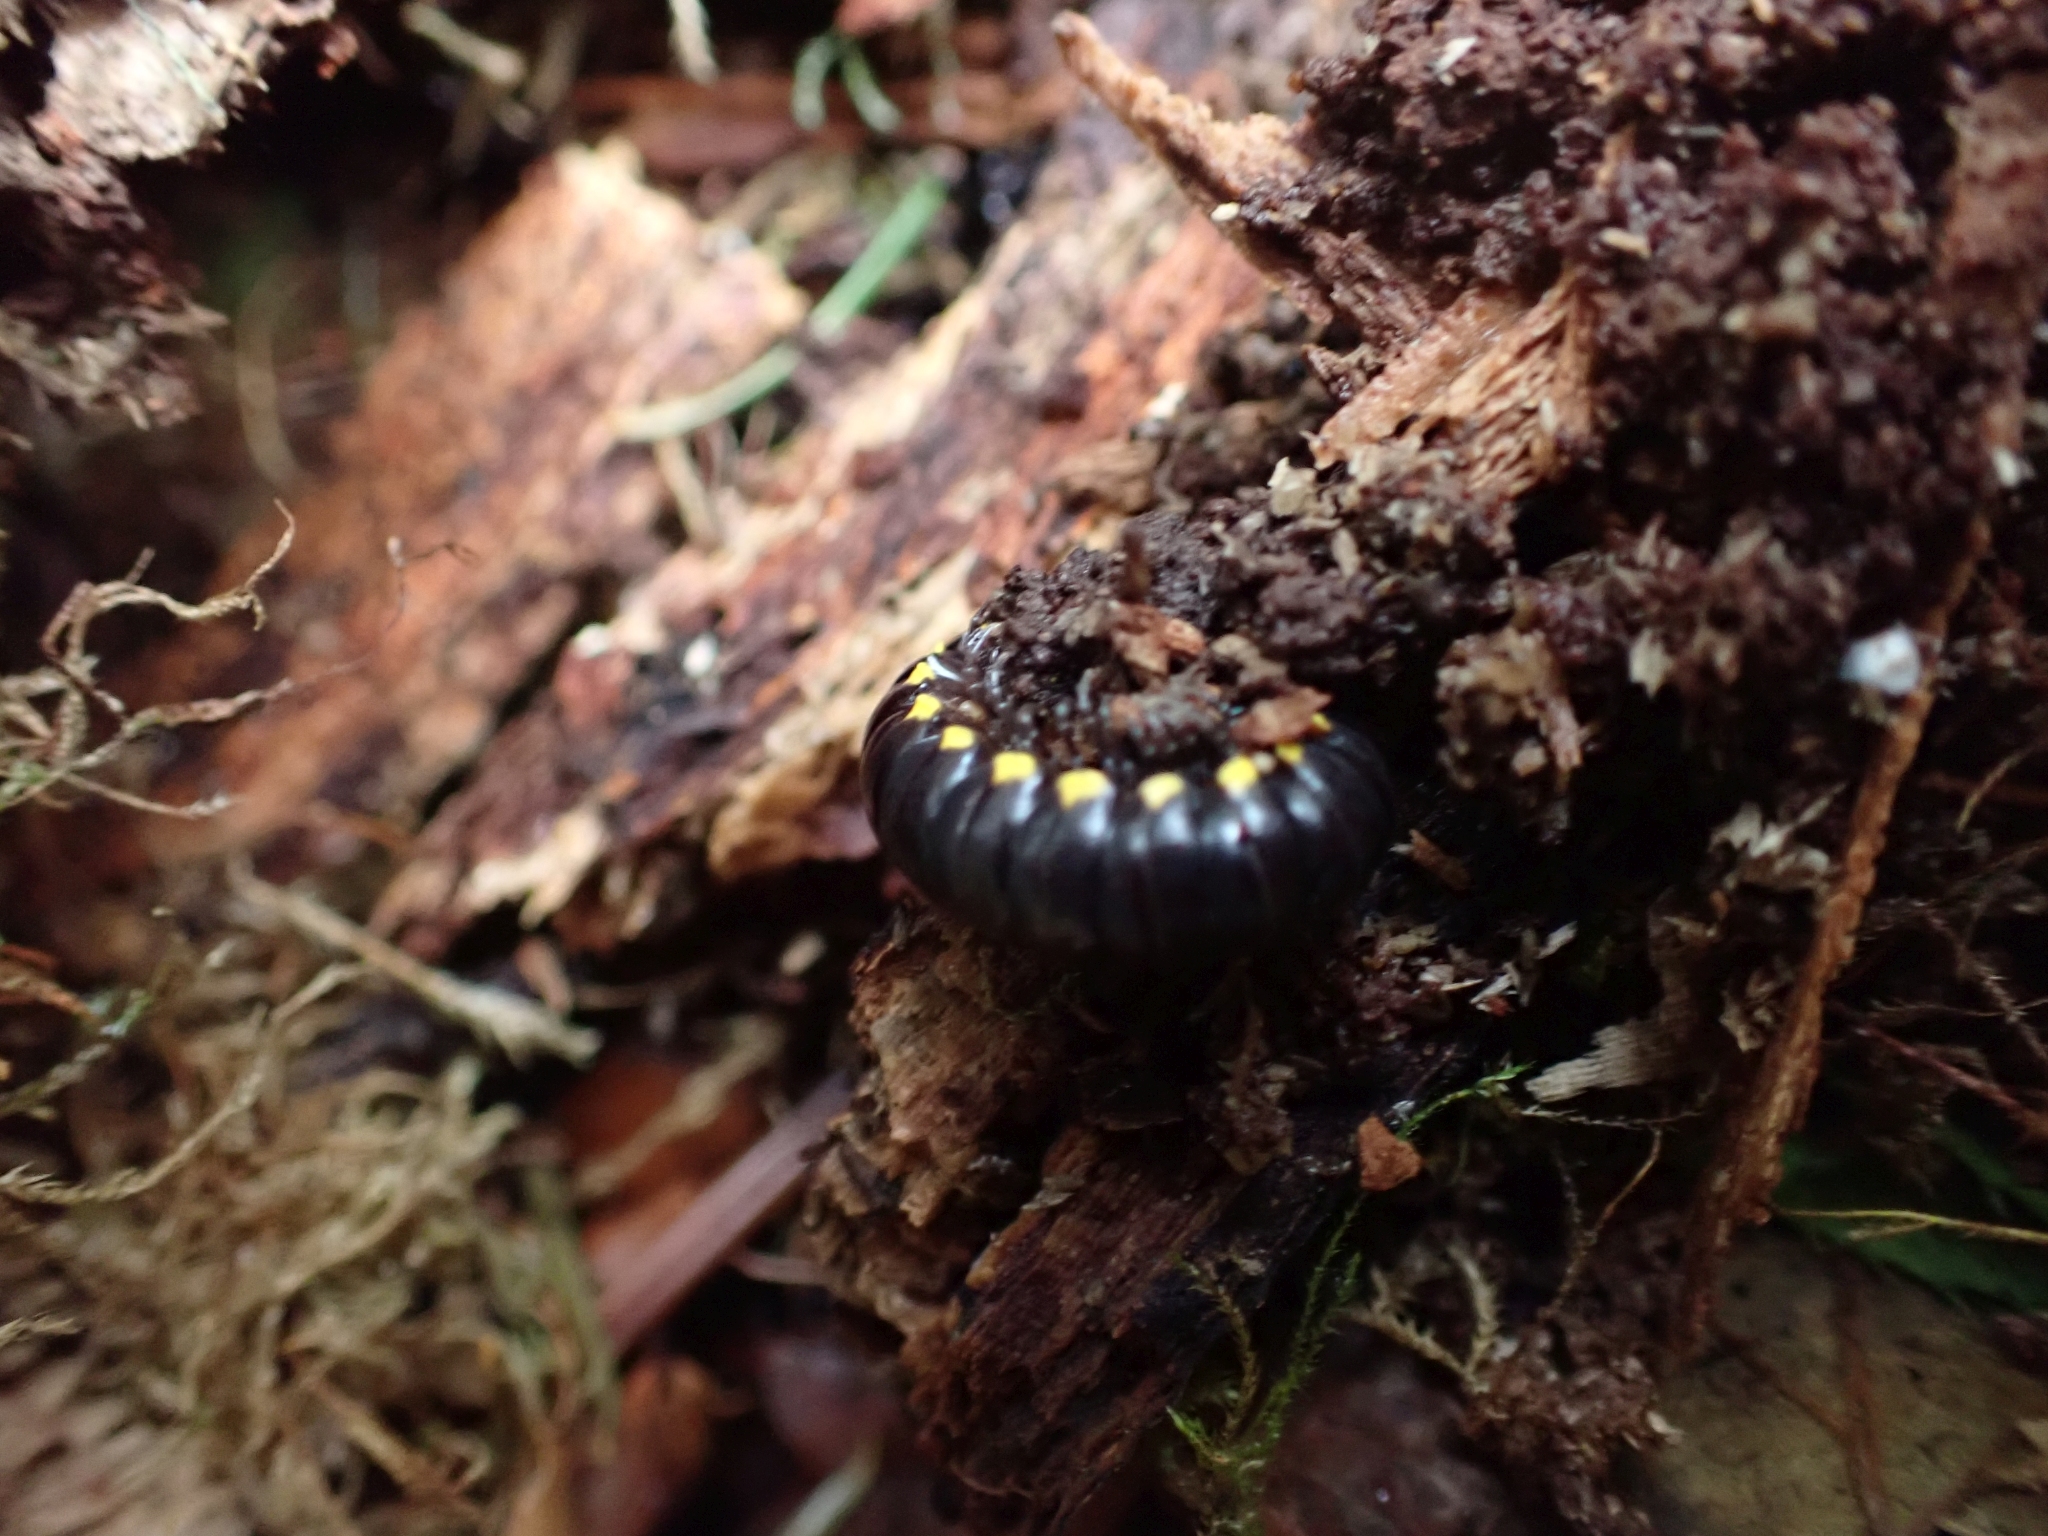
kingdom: Animalia
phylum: Arthropoda
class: Diplopoda
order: Polydesmida
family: Xystodesmidae
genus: Harpaphe
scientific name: Harpaphe haydeniana
